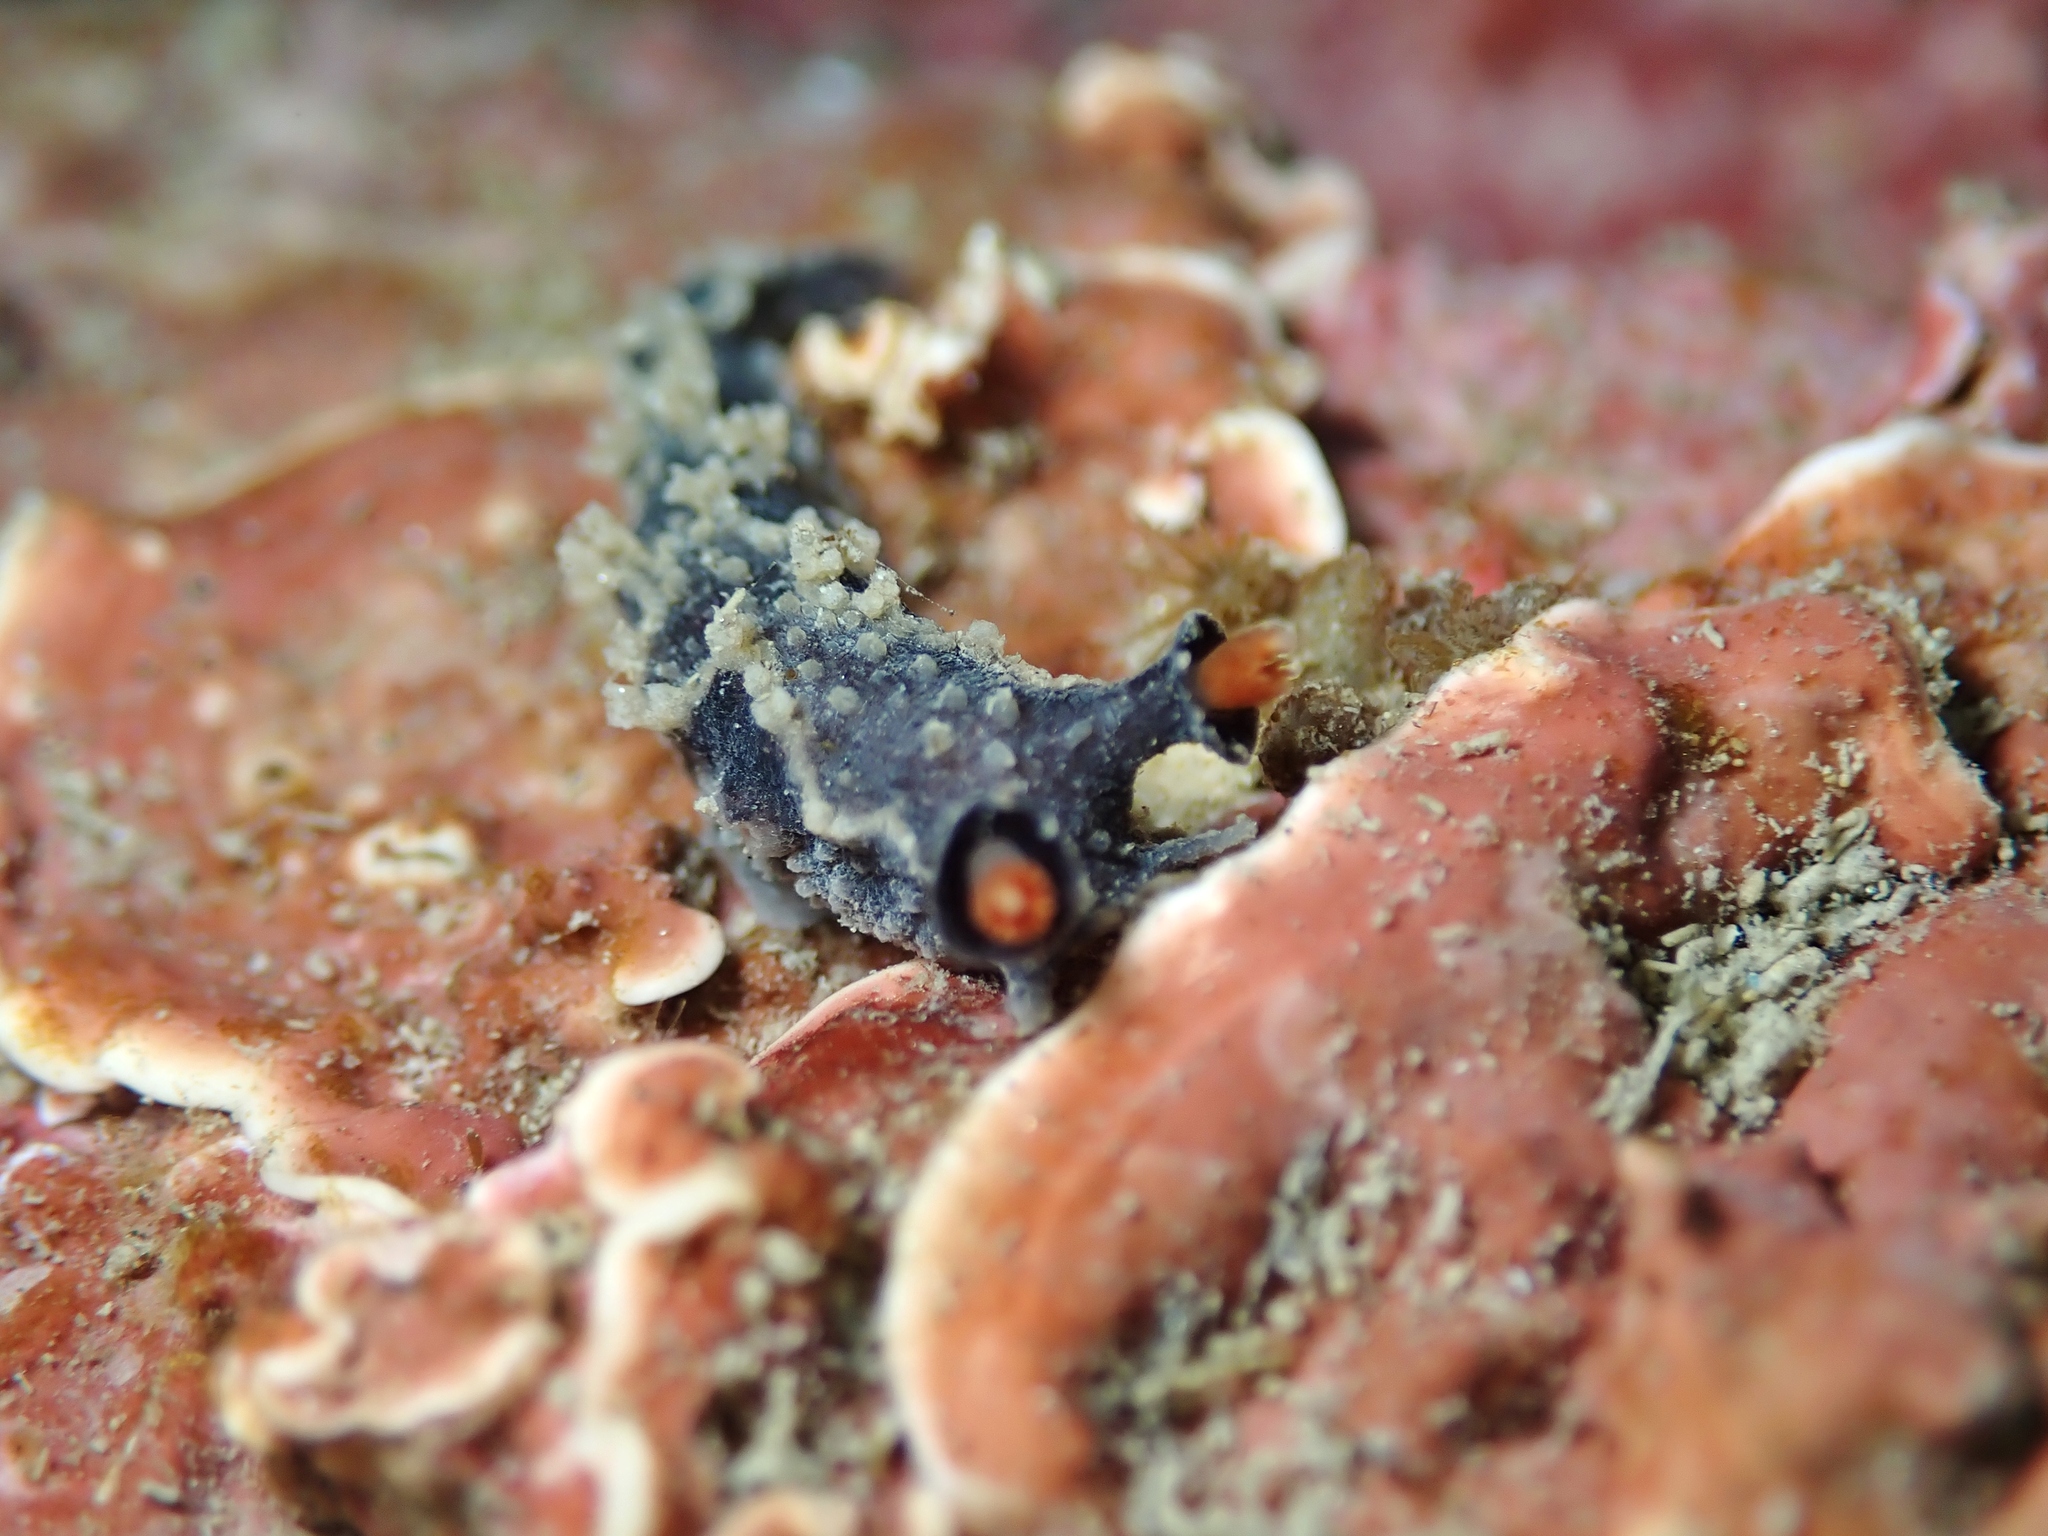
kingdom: Animalia
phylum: Mollusca
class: Gastropoda
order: Nudibranchia
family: Tritoniidae
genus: Tritonia
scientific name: Tritonia flemingi
